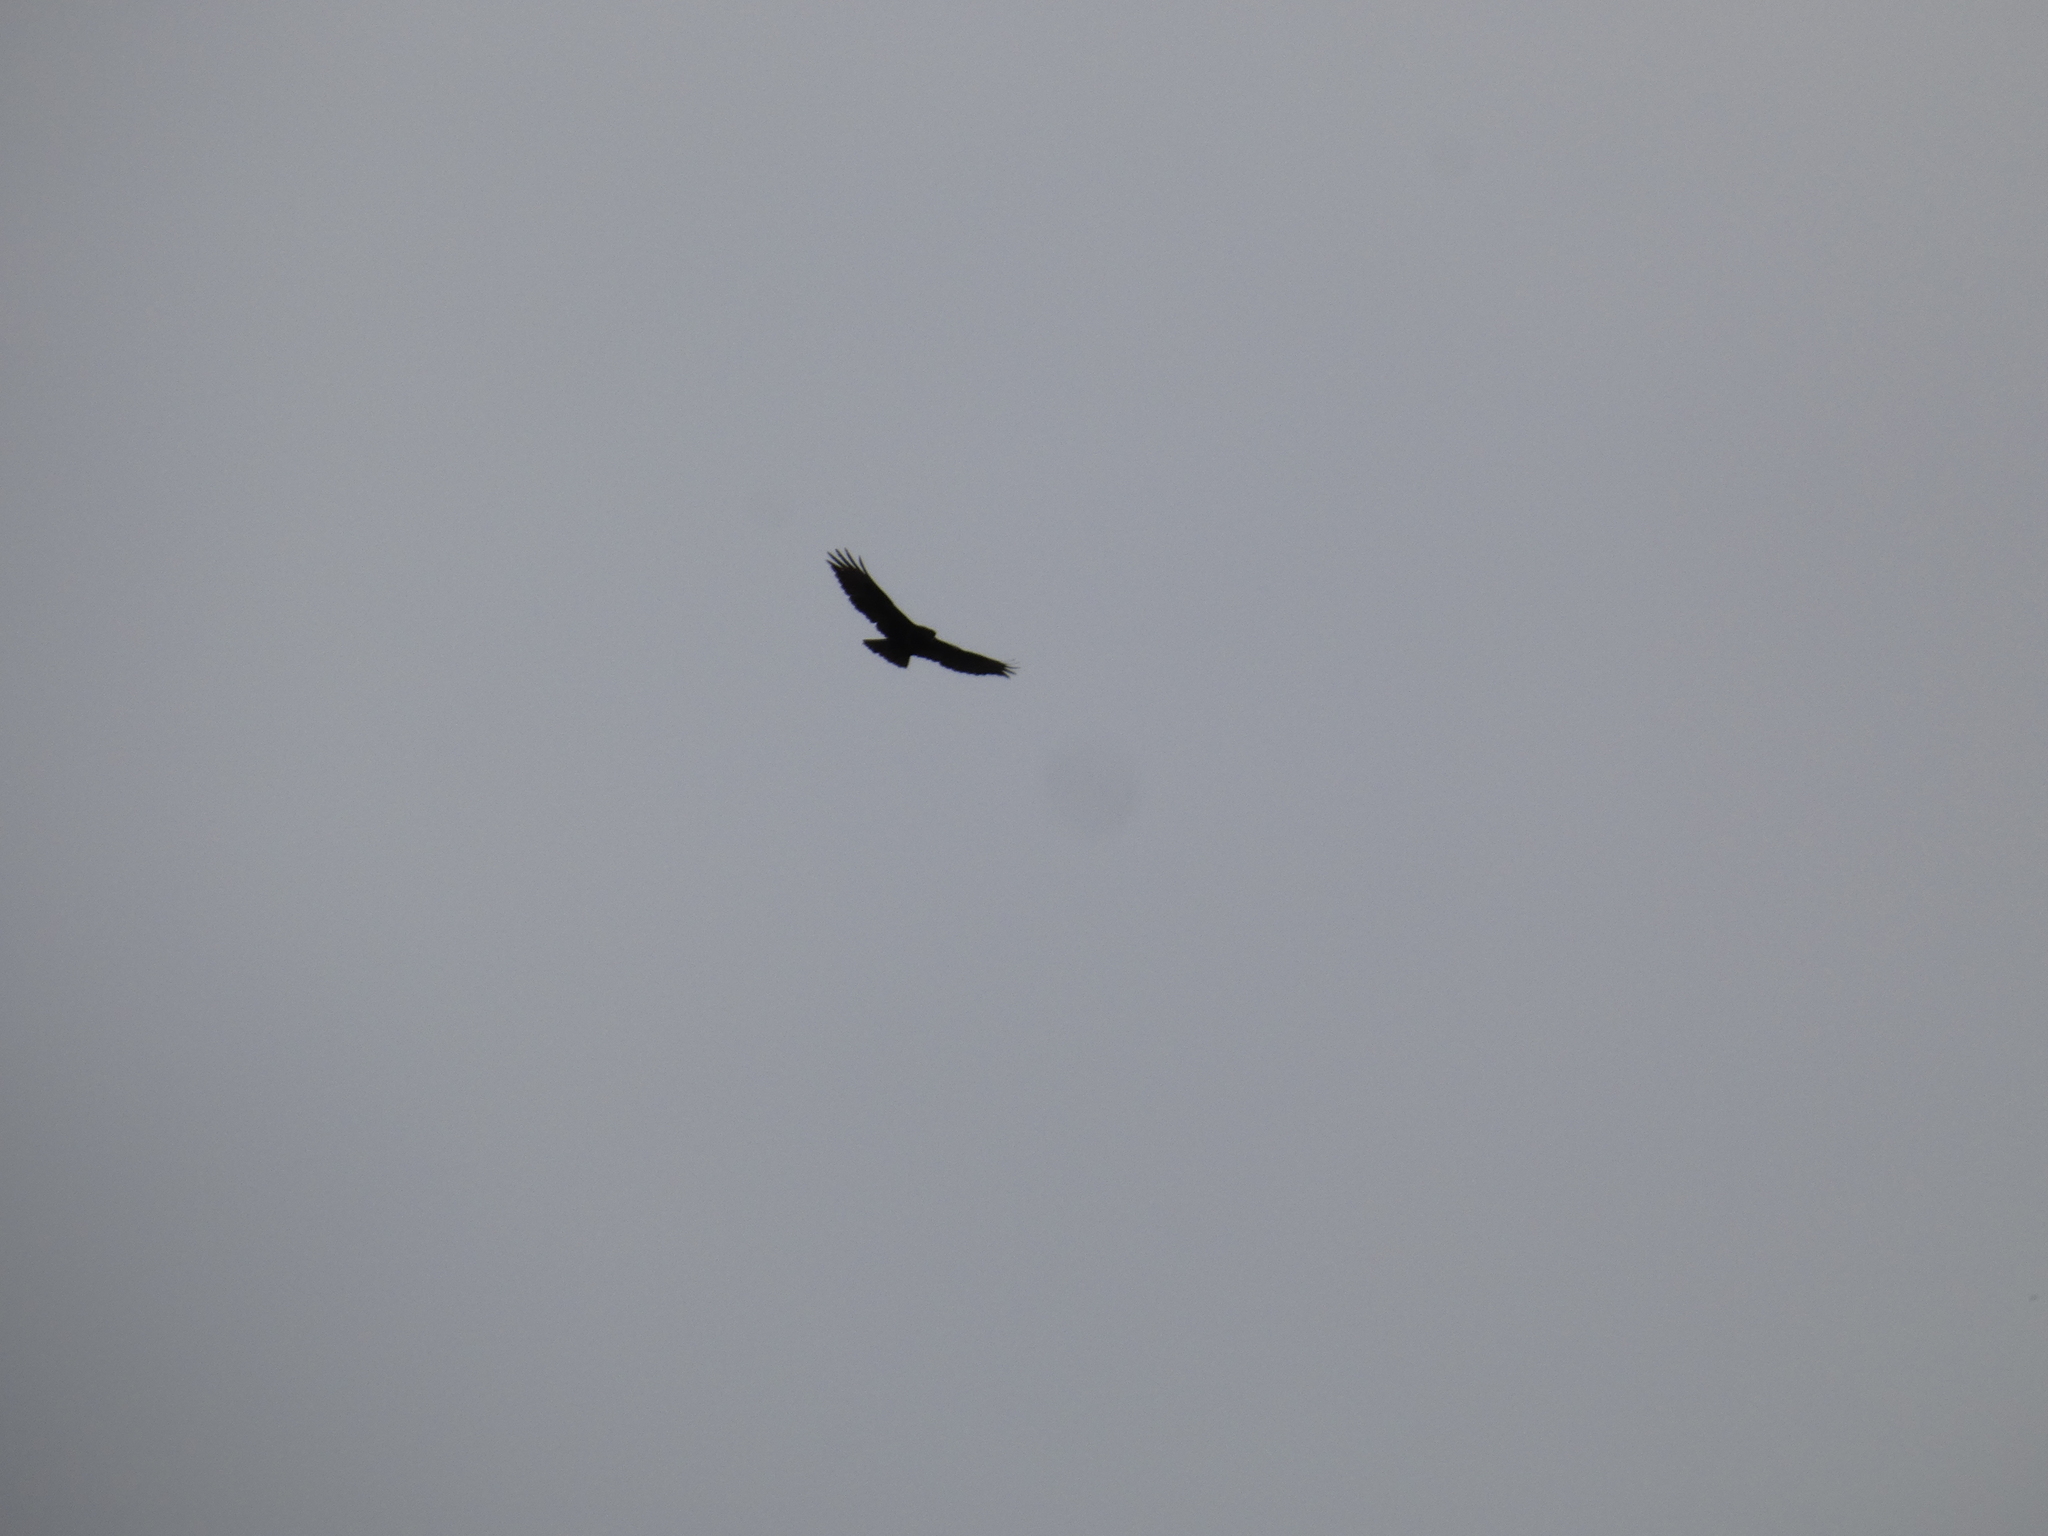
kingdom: Animalia
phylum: Chordata
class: Aves
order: Accipitriformes
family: Accipitridae
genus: Buteo
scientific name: Buteo buteo
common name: Common buzzard
